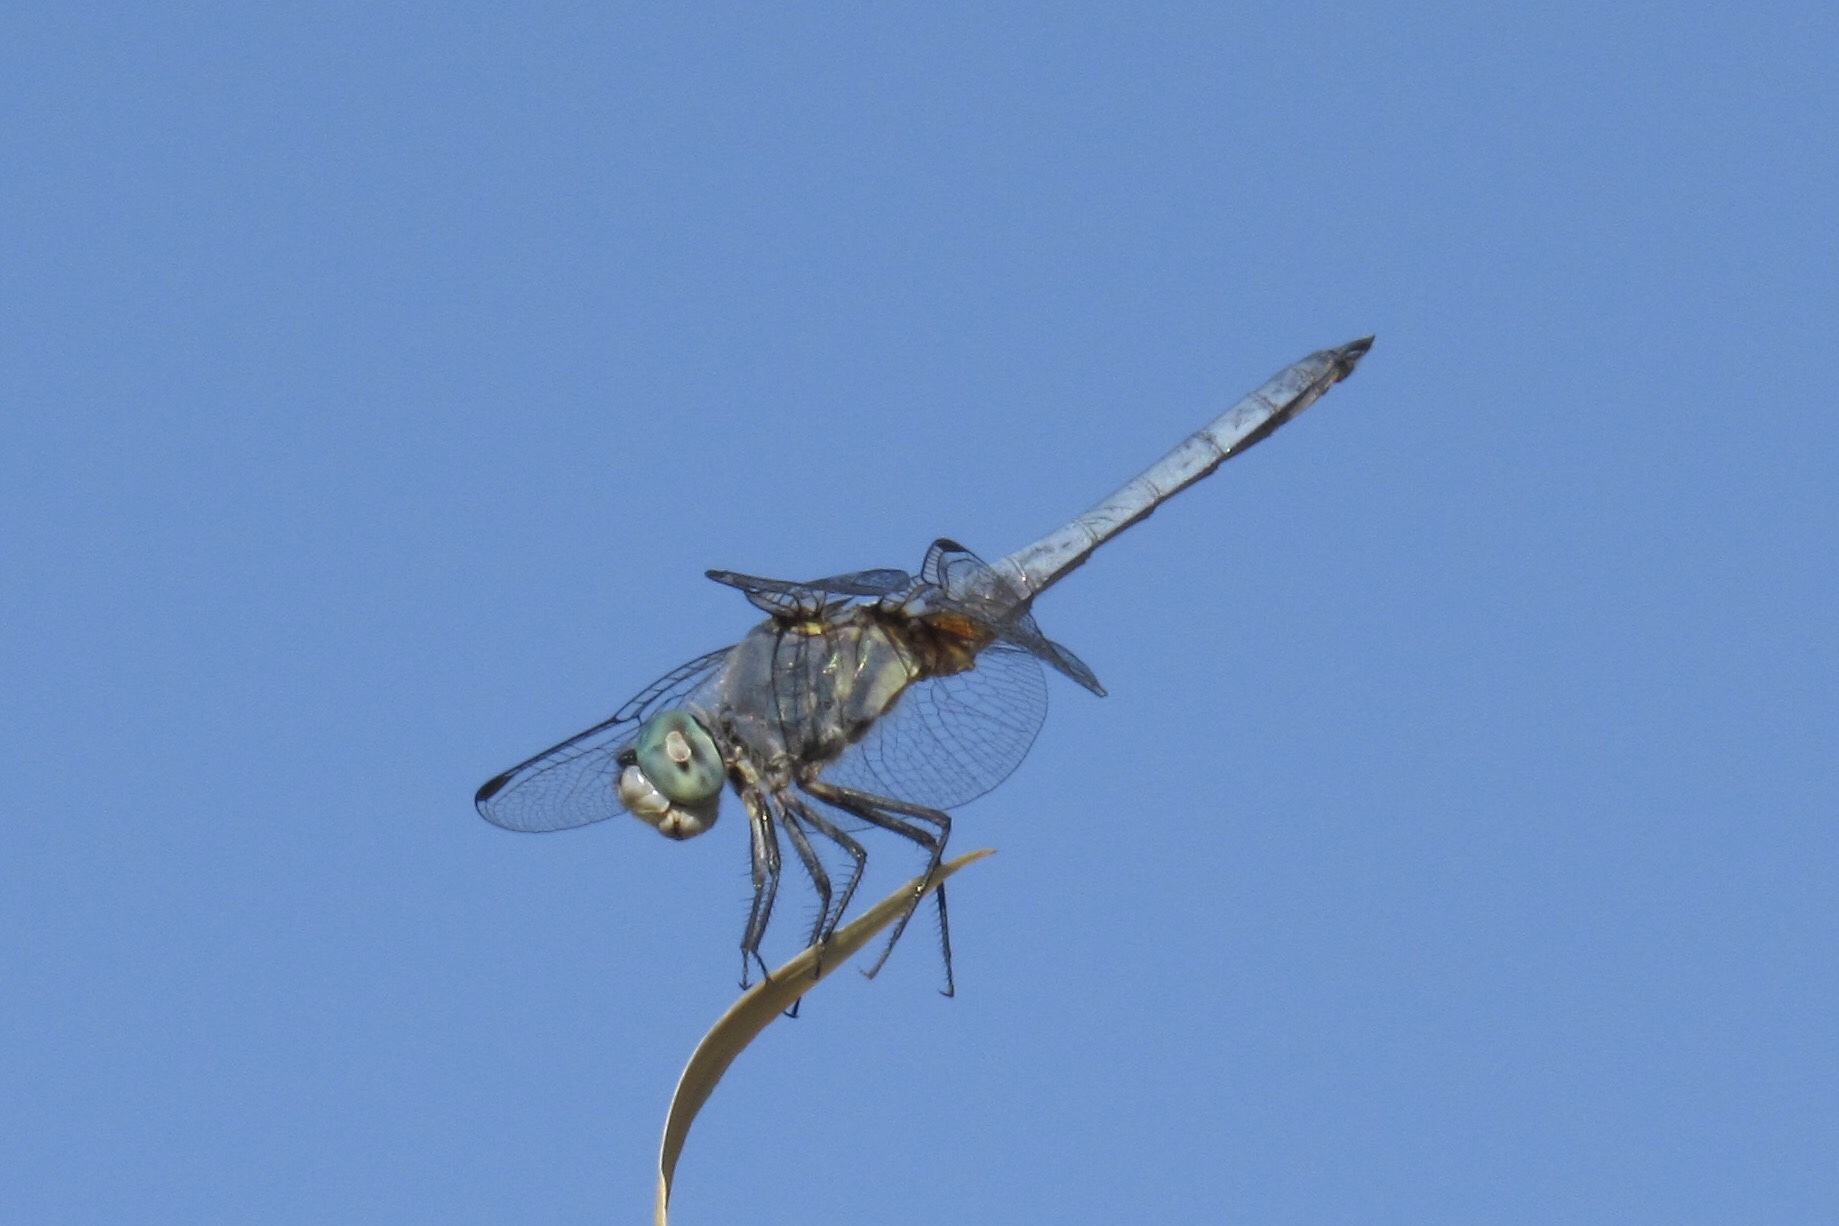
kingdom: Animalia
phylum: Arthropoda
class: Insecta
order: Odonata
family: Libellulidae
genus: Pachydiplax
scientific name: Pachydiplax longipennis
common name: Blue dasher
